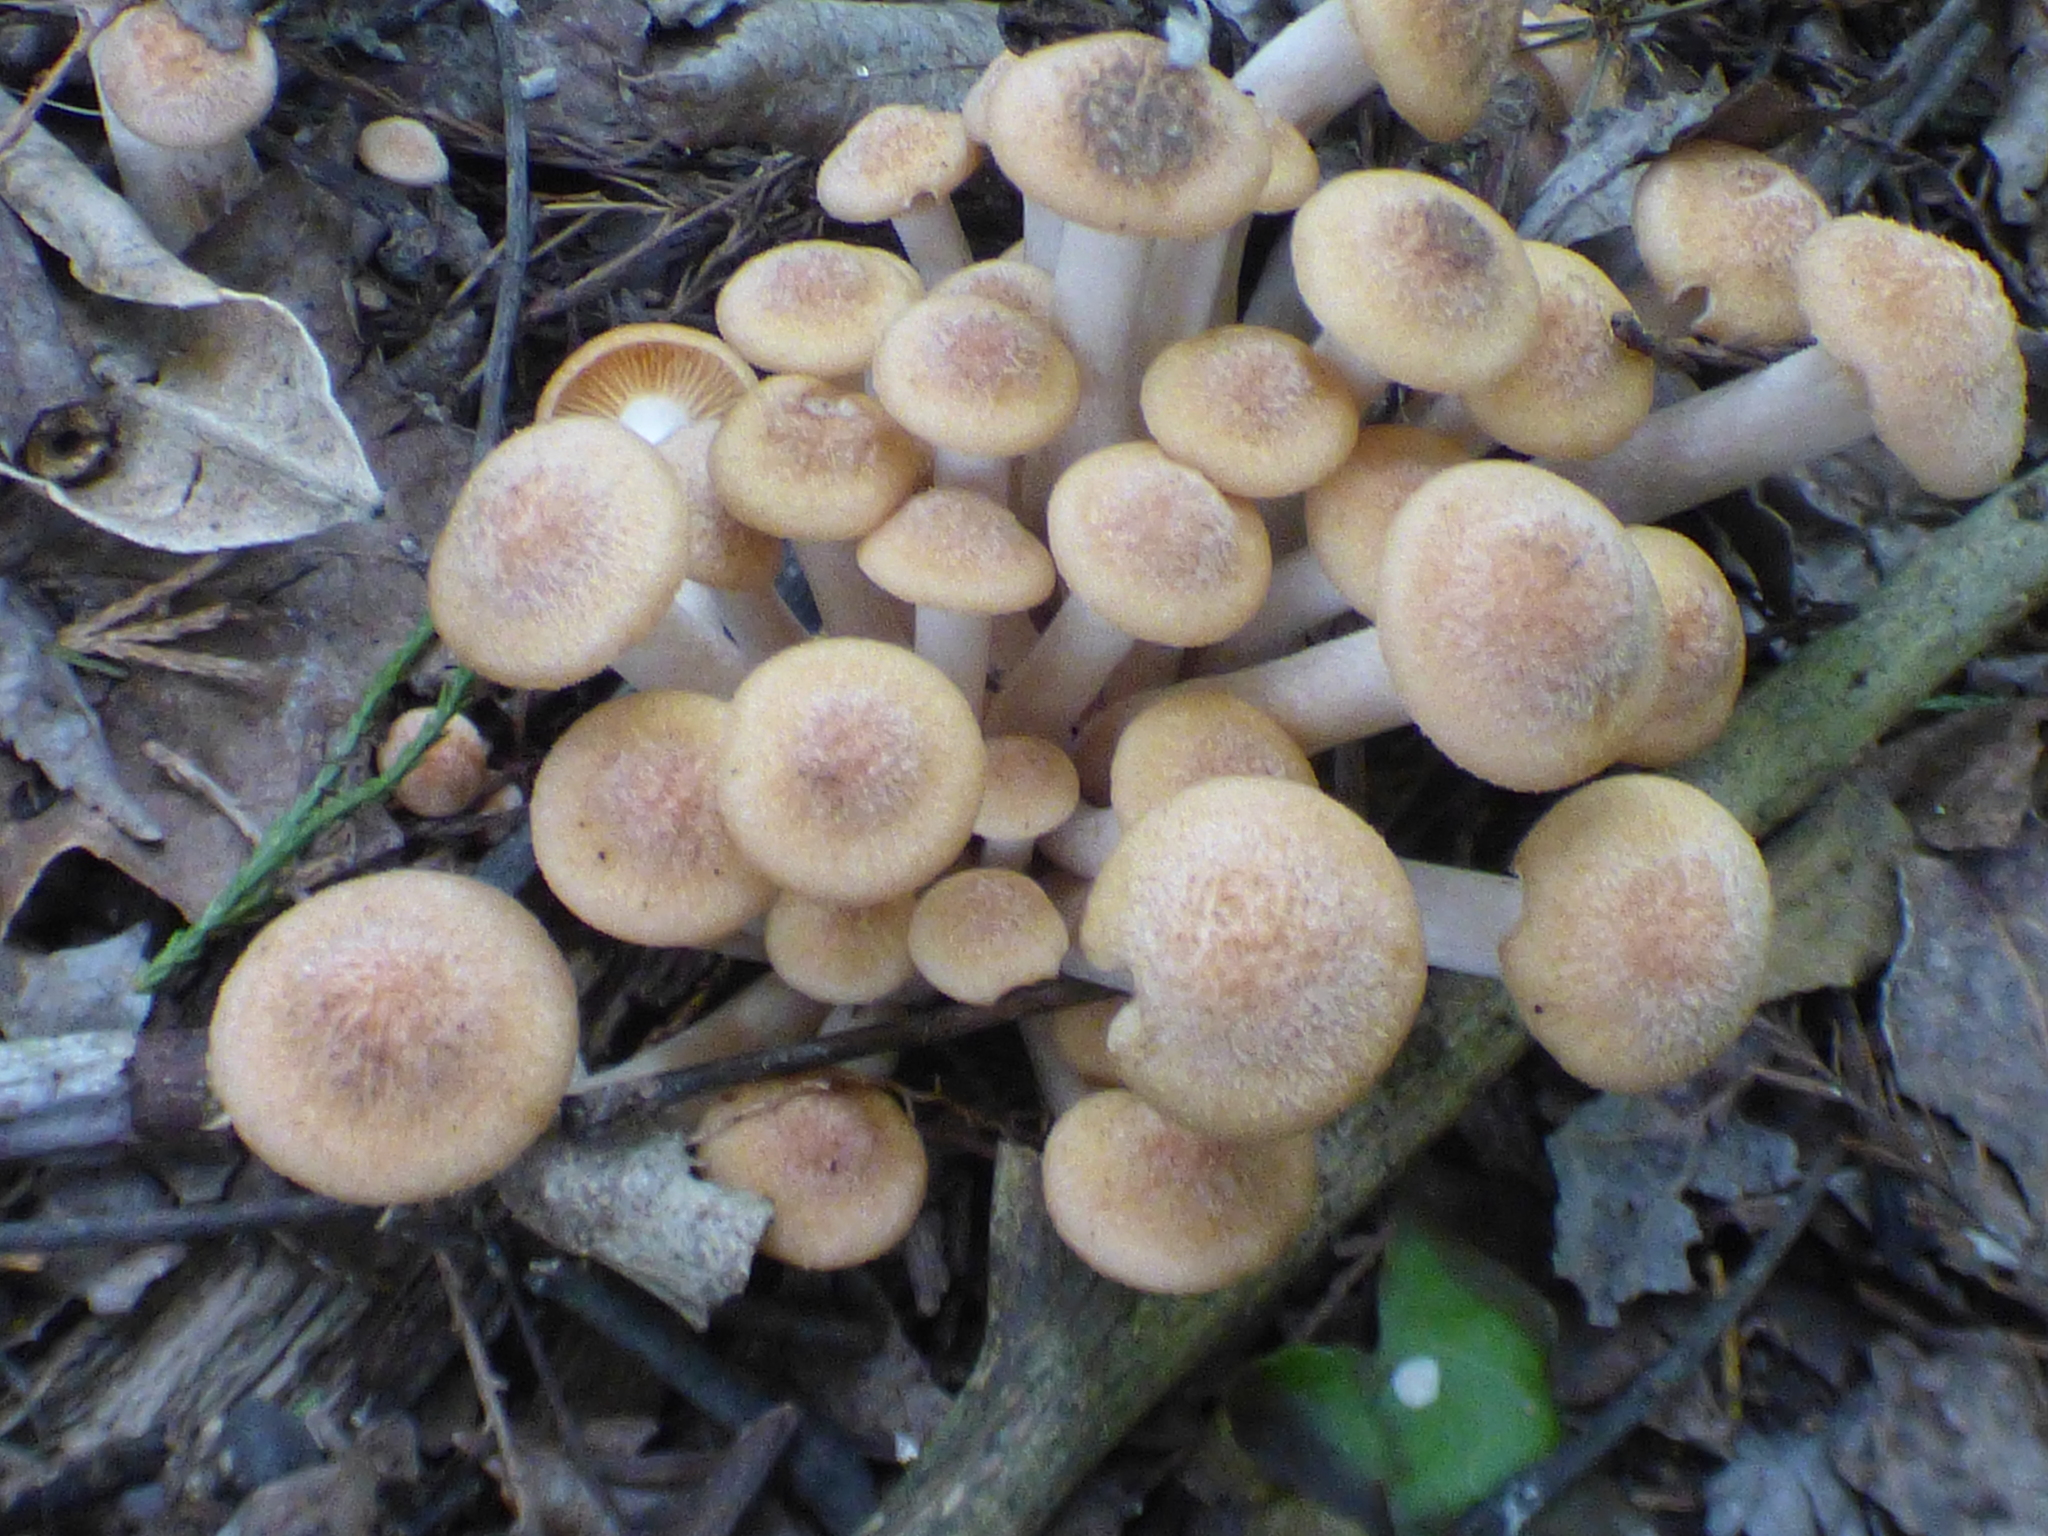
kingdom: Fungi
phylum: Basidiomycota
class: Agaricomycetes
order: Agaricales
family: Physalacriaceae
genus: Desarmillaria
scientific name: Desarmillaria caespitosa
